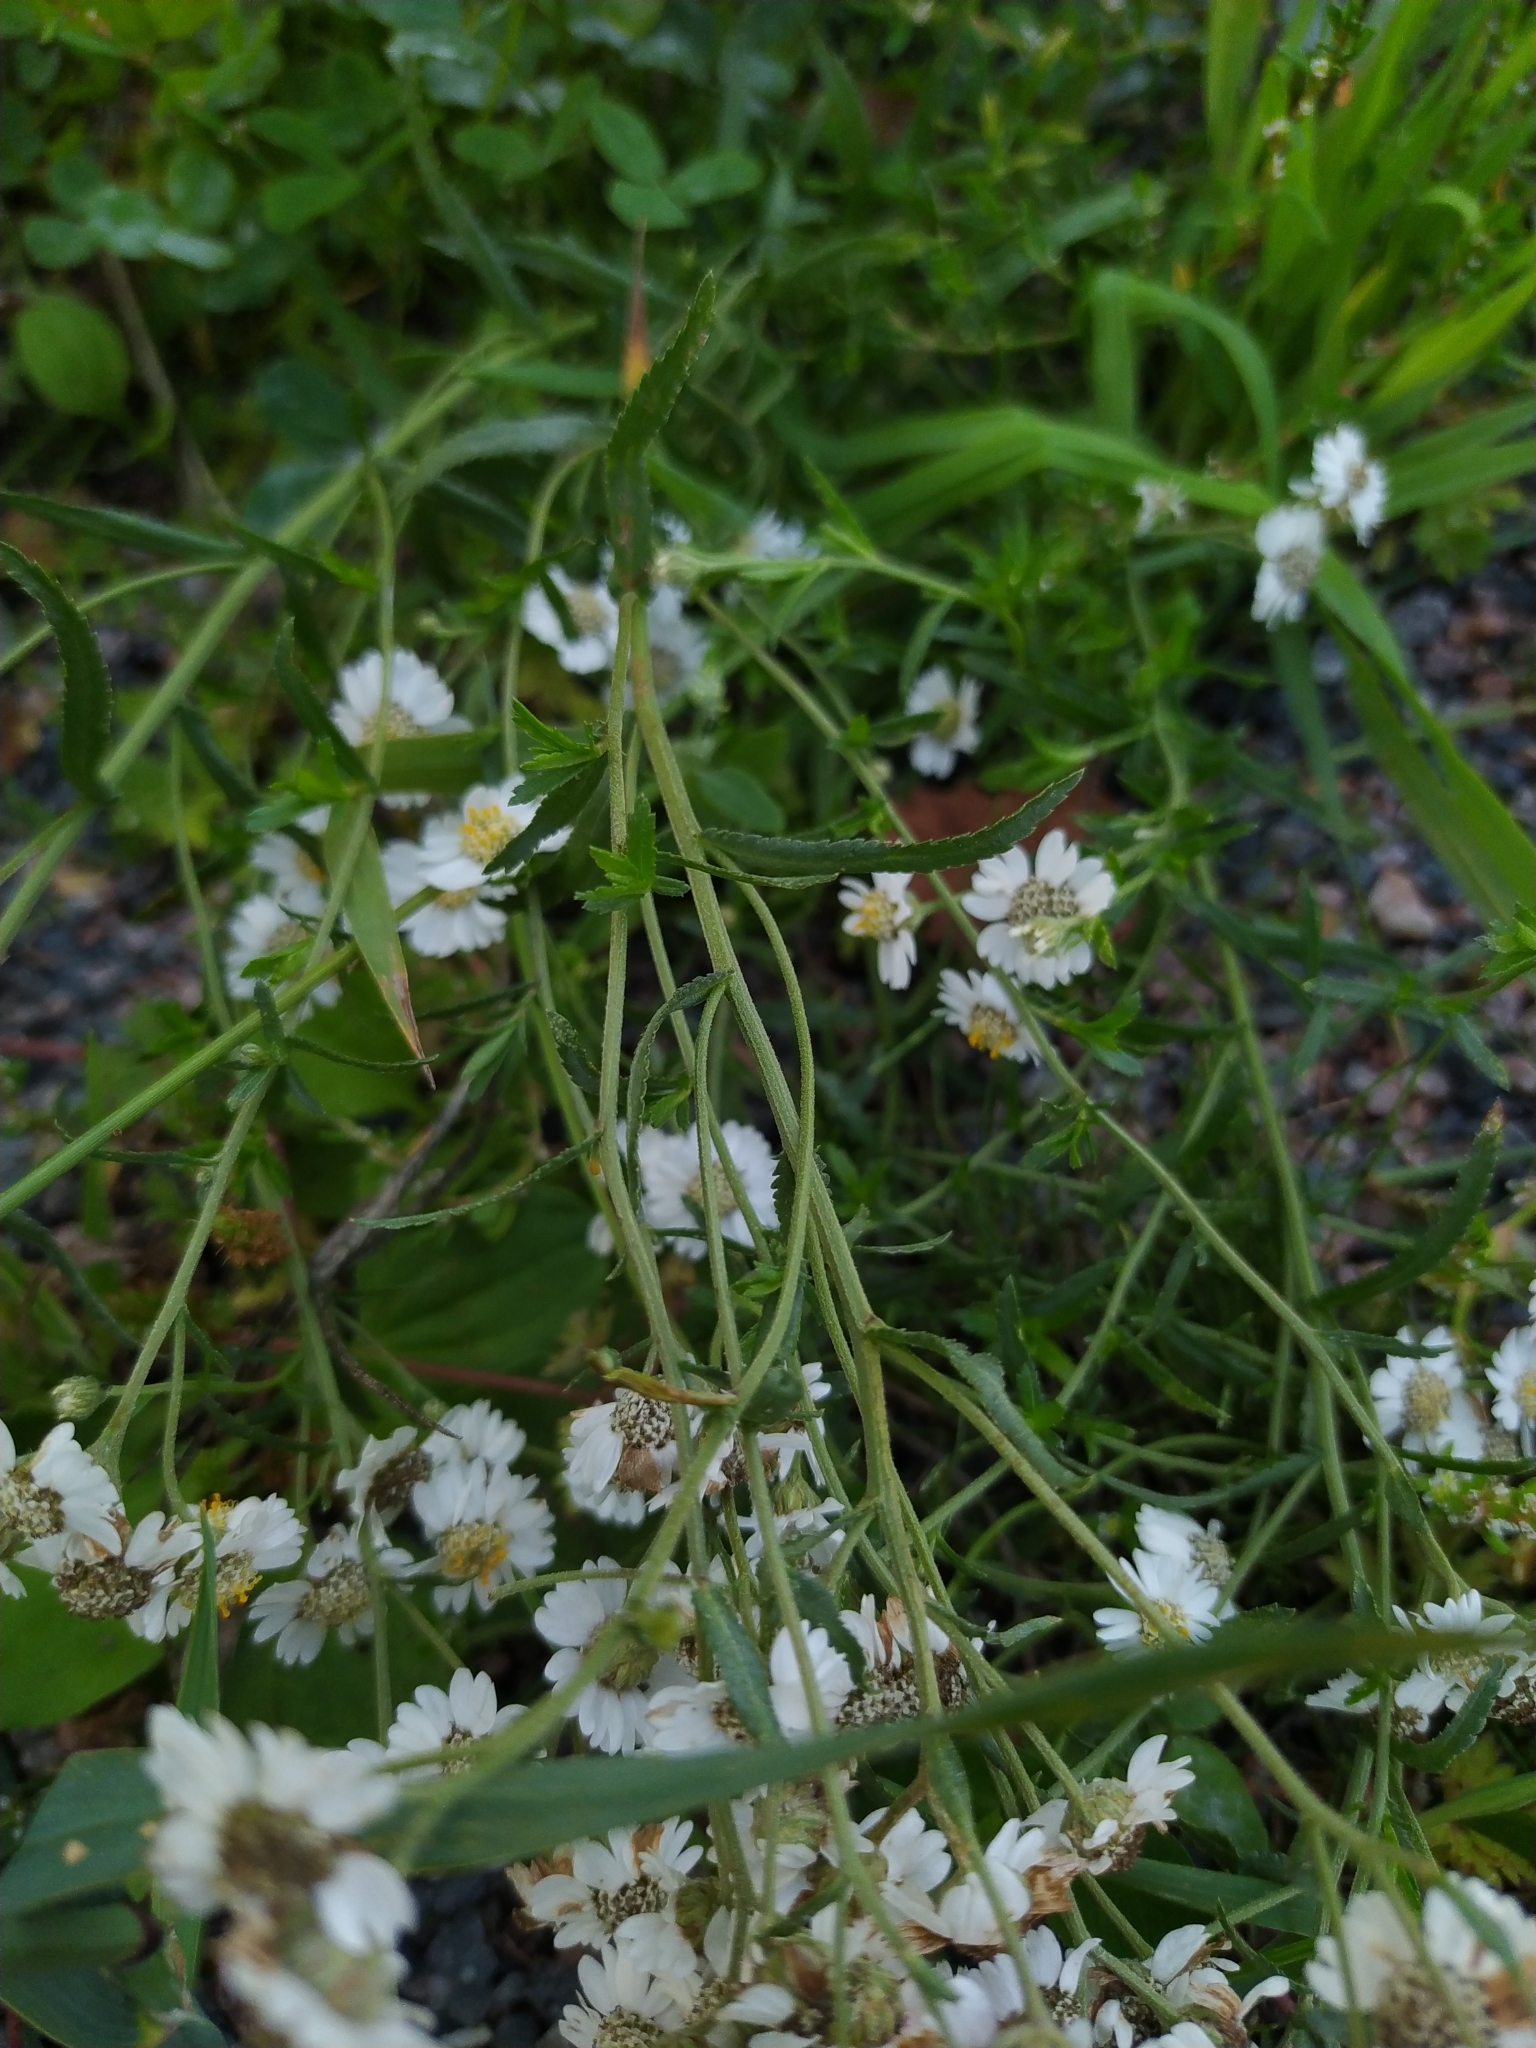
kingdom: Plantae
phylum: Tracheophyta
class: Magnoliopsida
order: Asterales
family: Asteraceae
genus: Achillea
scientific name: Achillea ptarmica
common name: Sneezeweed
